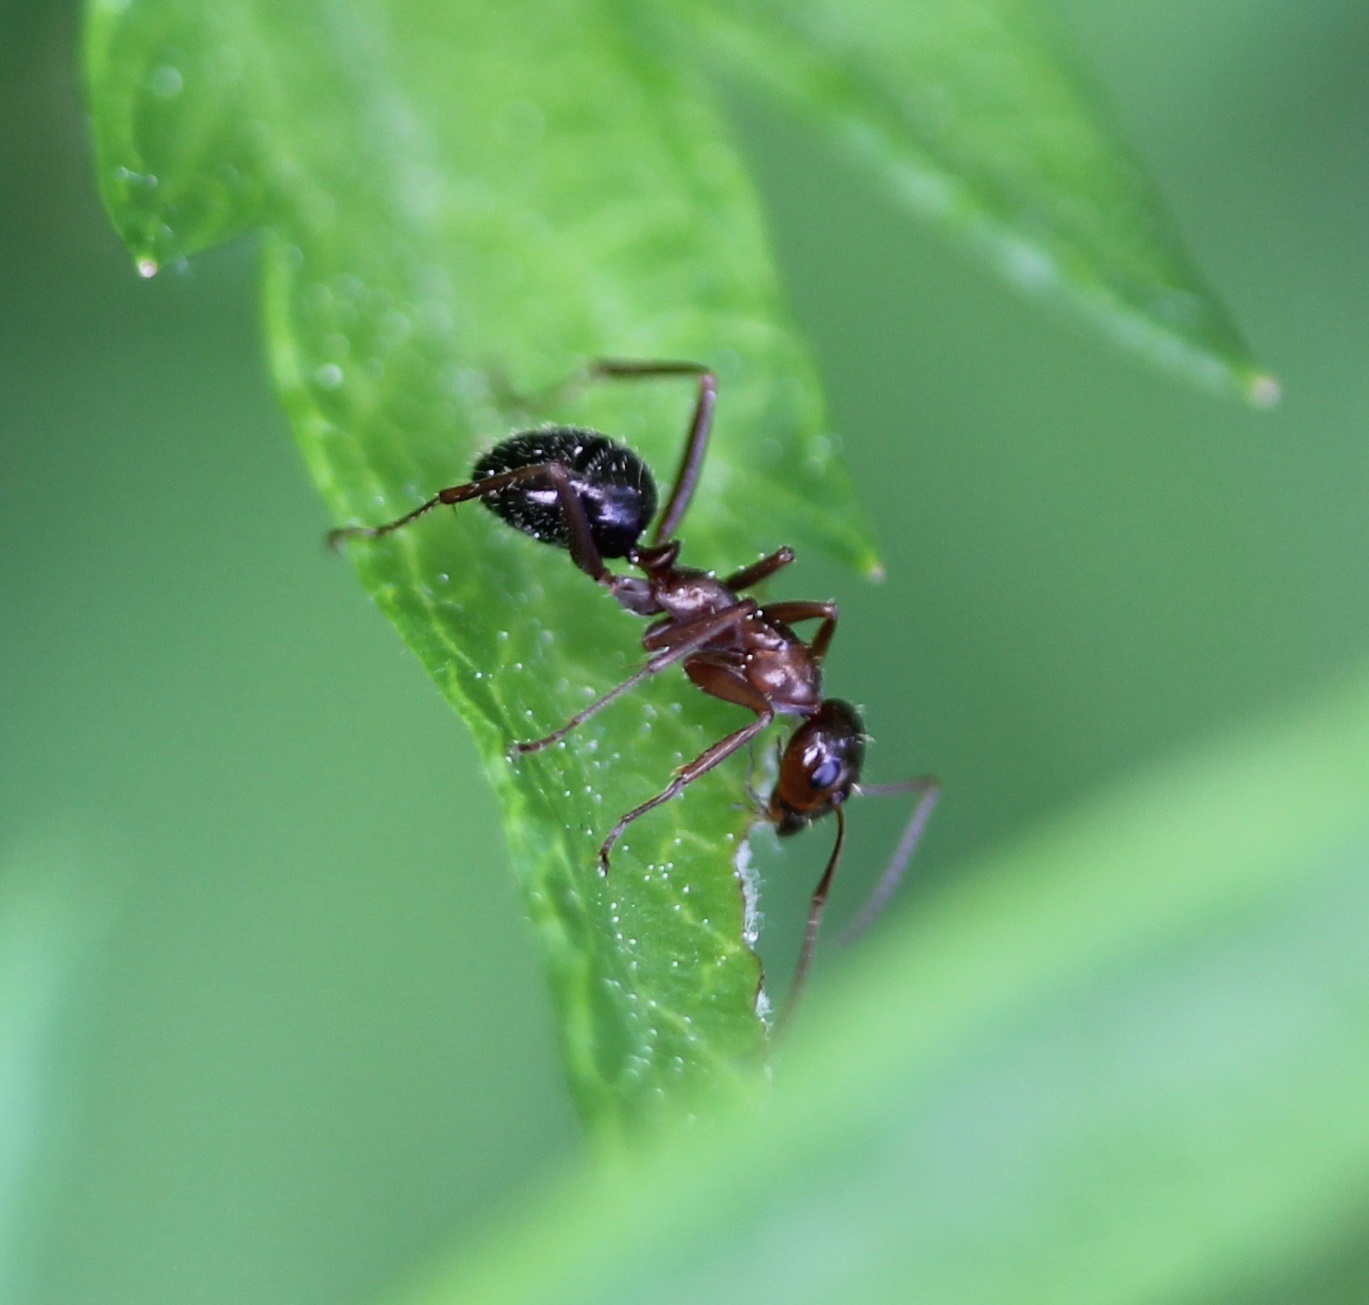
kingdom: Animalia
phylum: Arthropoda
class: Insecta
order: Hymenoptera
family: Formicidae
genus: Formica
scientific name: Formica incerta
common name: Uncertain field ant
